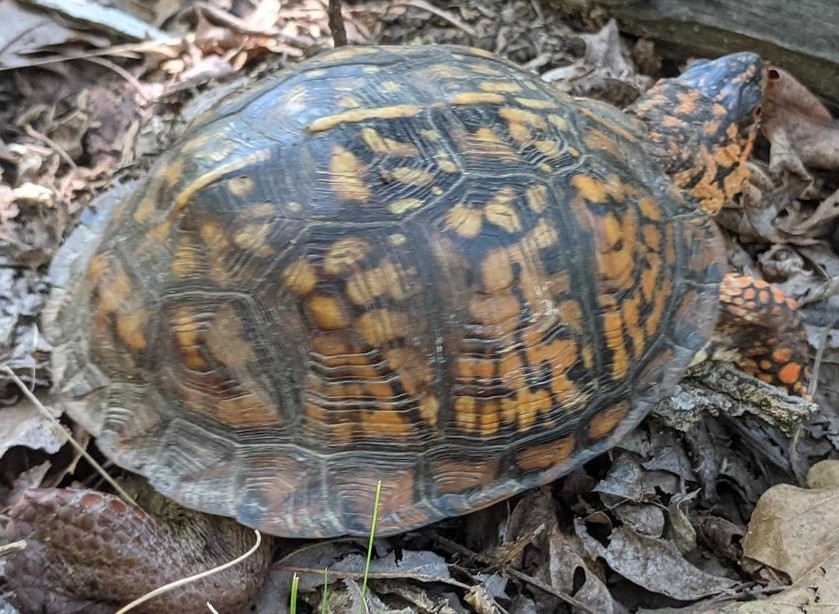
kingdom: Animalia
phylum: Chordata
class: Testudines
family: Emydidae
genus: Terrapene
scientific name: Terrapene carolina
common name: Common box turtle
